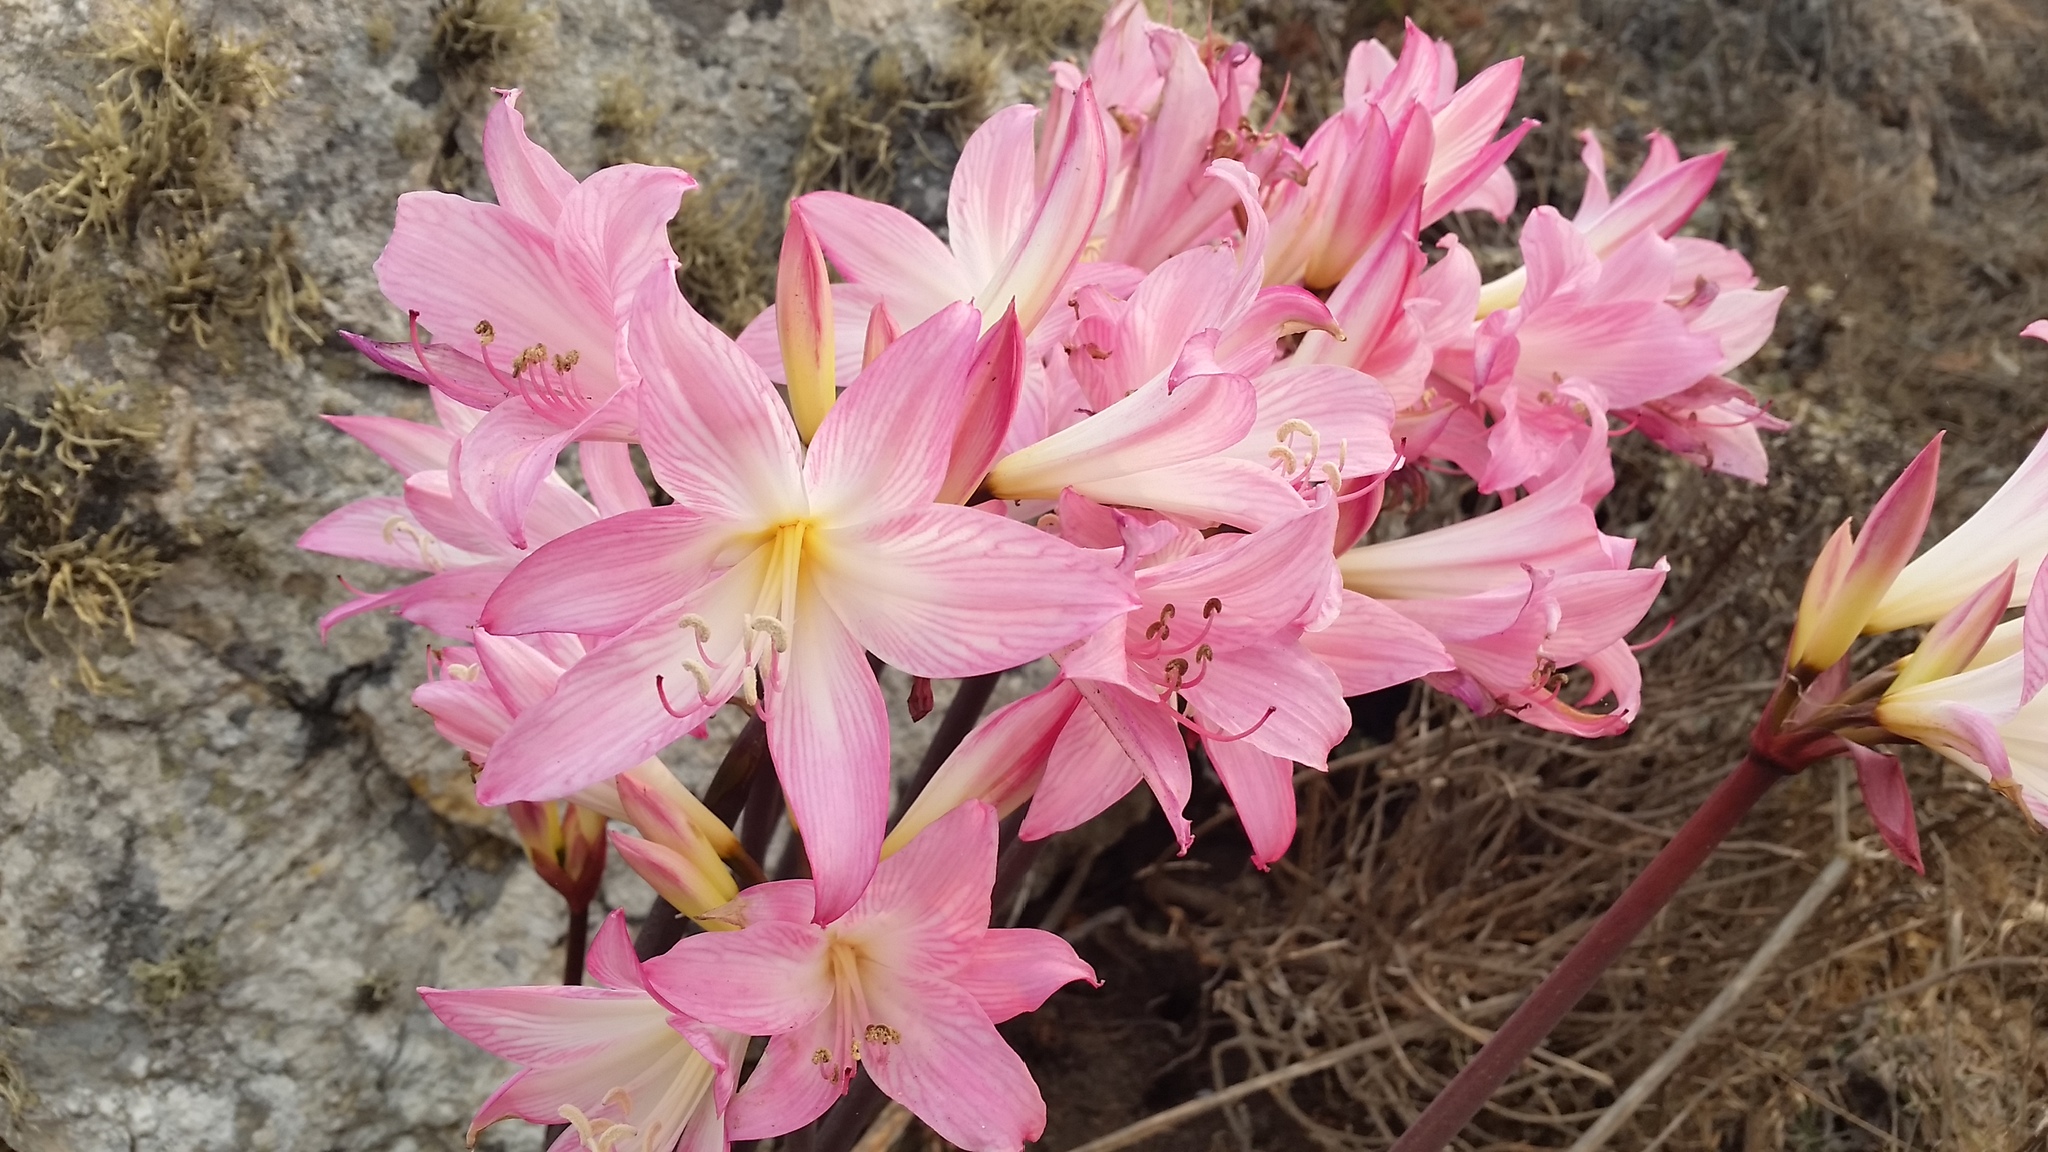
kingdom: Plantae
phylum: Tracheophyta
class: Liliopsida
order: Asparagales
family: Amaryllidaceae
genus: Amaryllis
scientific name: Amaryllis belladonna
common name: Jersey lily
